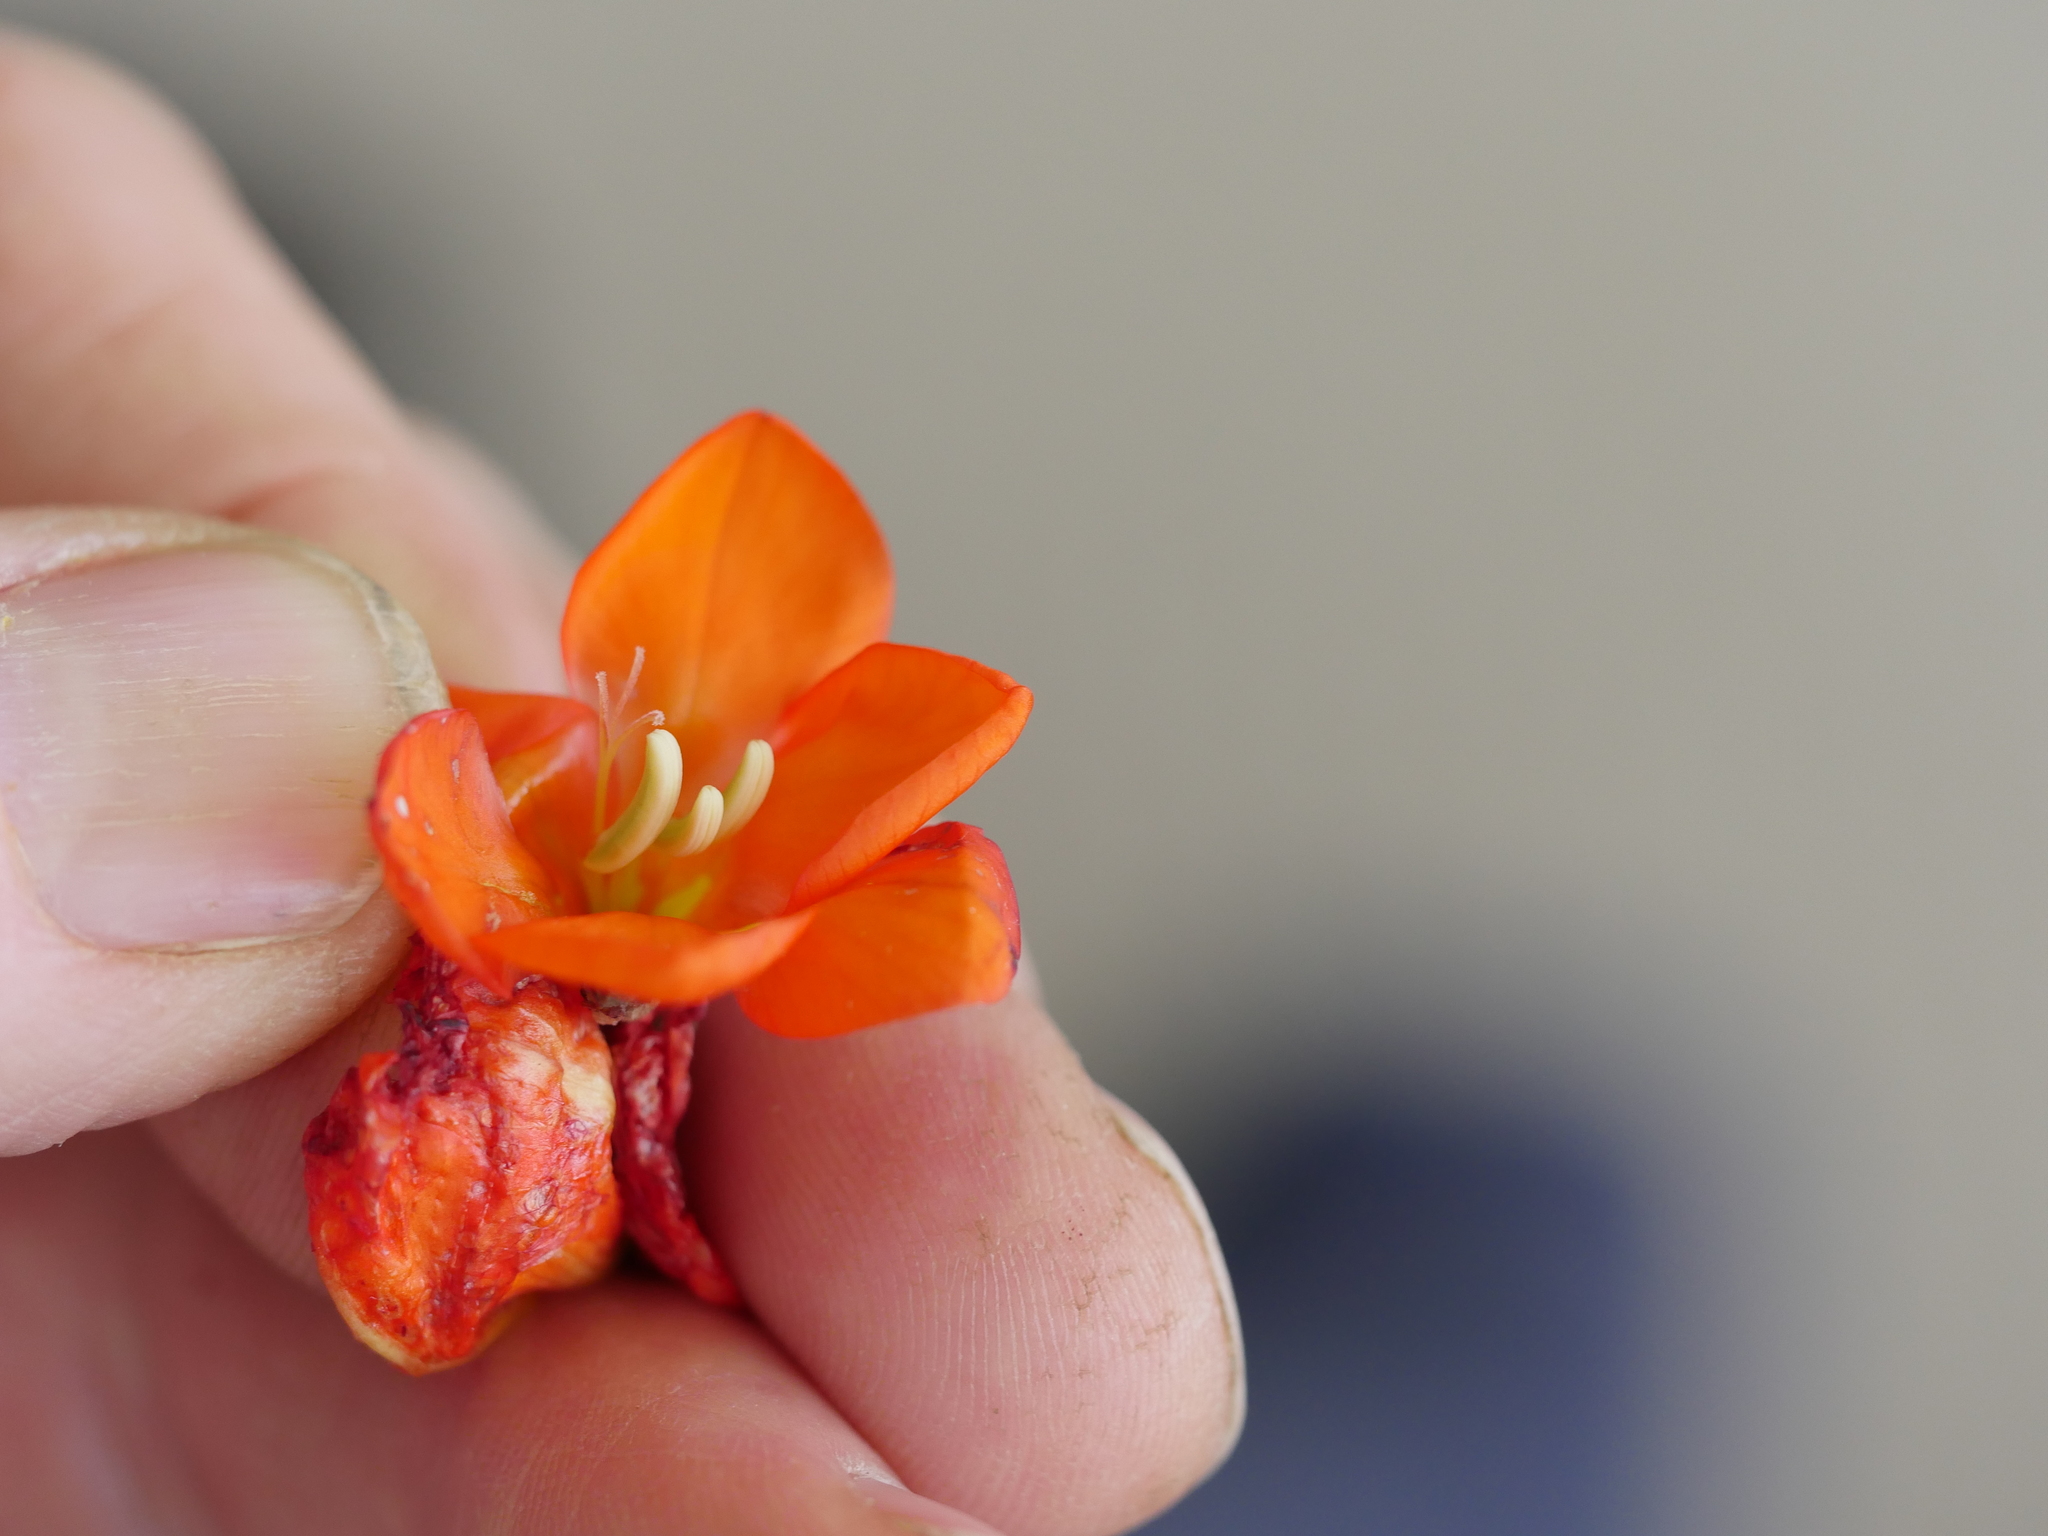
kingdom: Plantae
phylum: Tracheophyta
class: Liliopsida
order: Asparagales
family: Iridaceae
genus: Tritonia
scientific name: Tritonia crocata
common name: Flame-freesia
